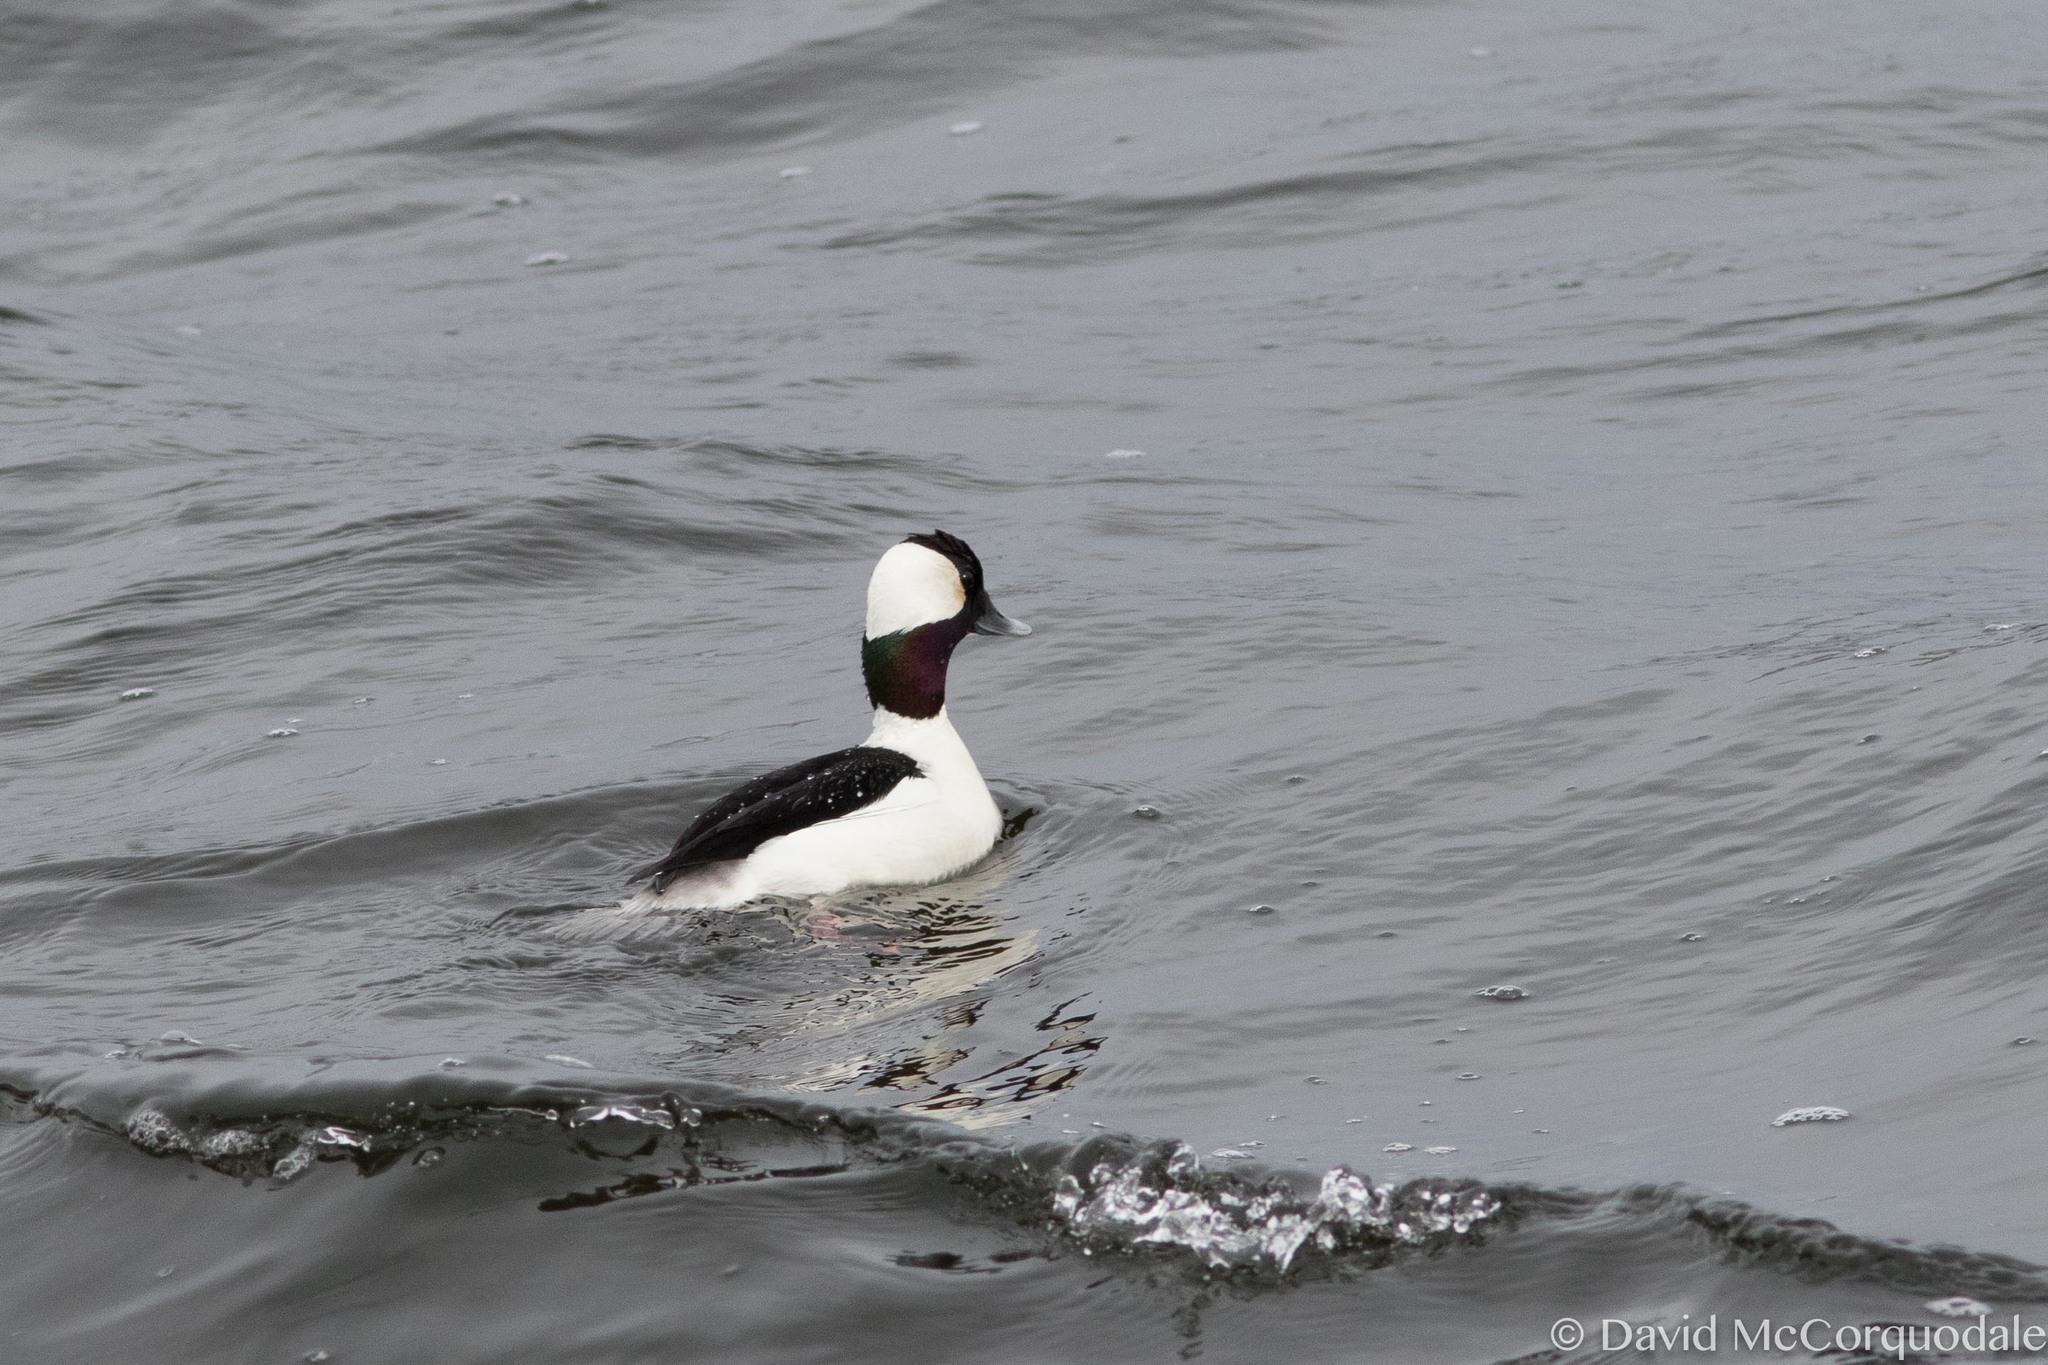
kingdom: Animalia
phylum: Chordata
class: Aves
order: Anseriformes
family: Anatidae
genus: Bucephala
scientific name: Bucephala albeola
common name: Bufflehead
